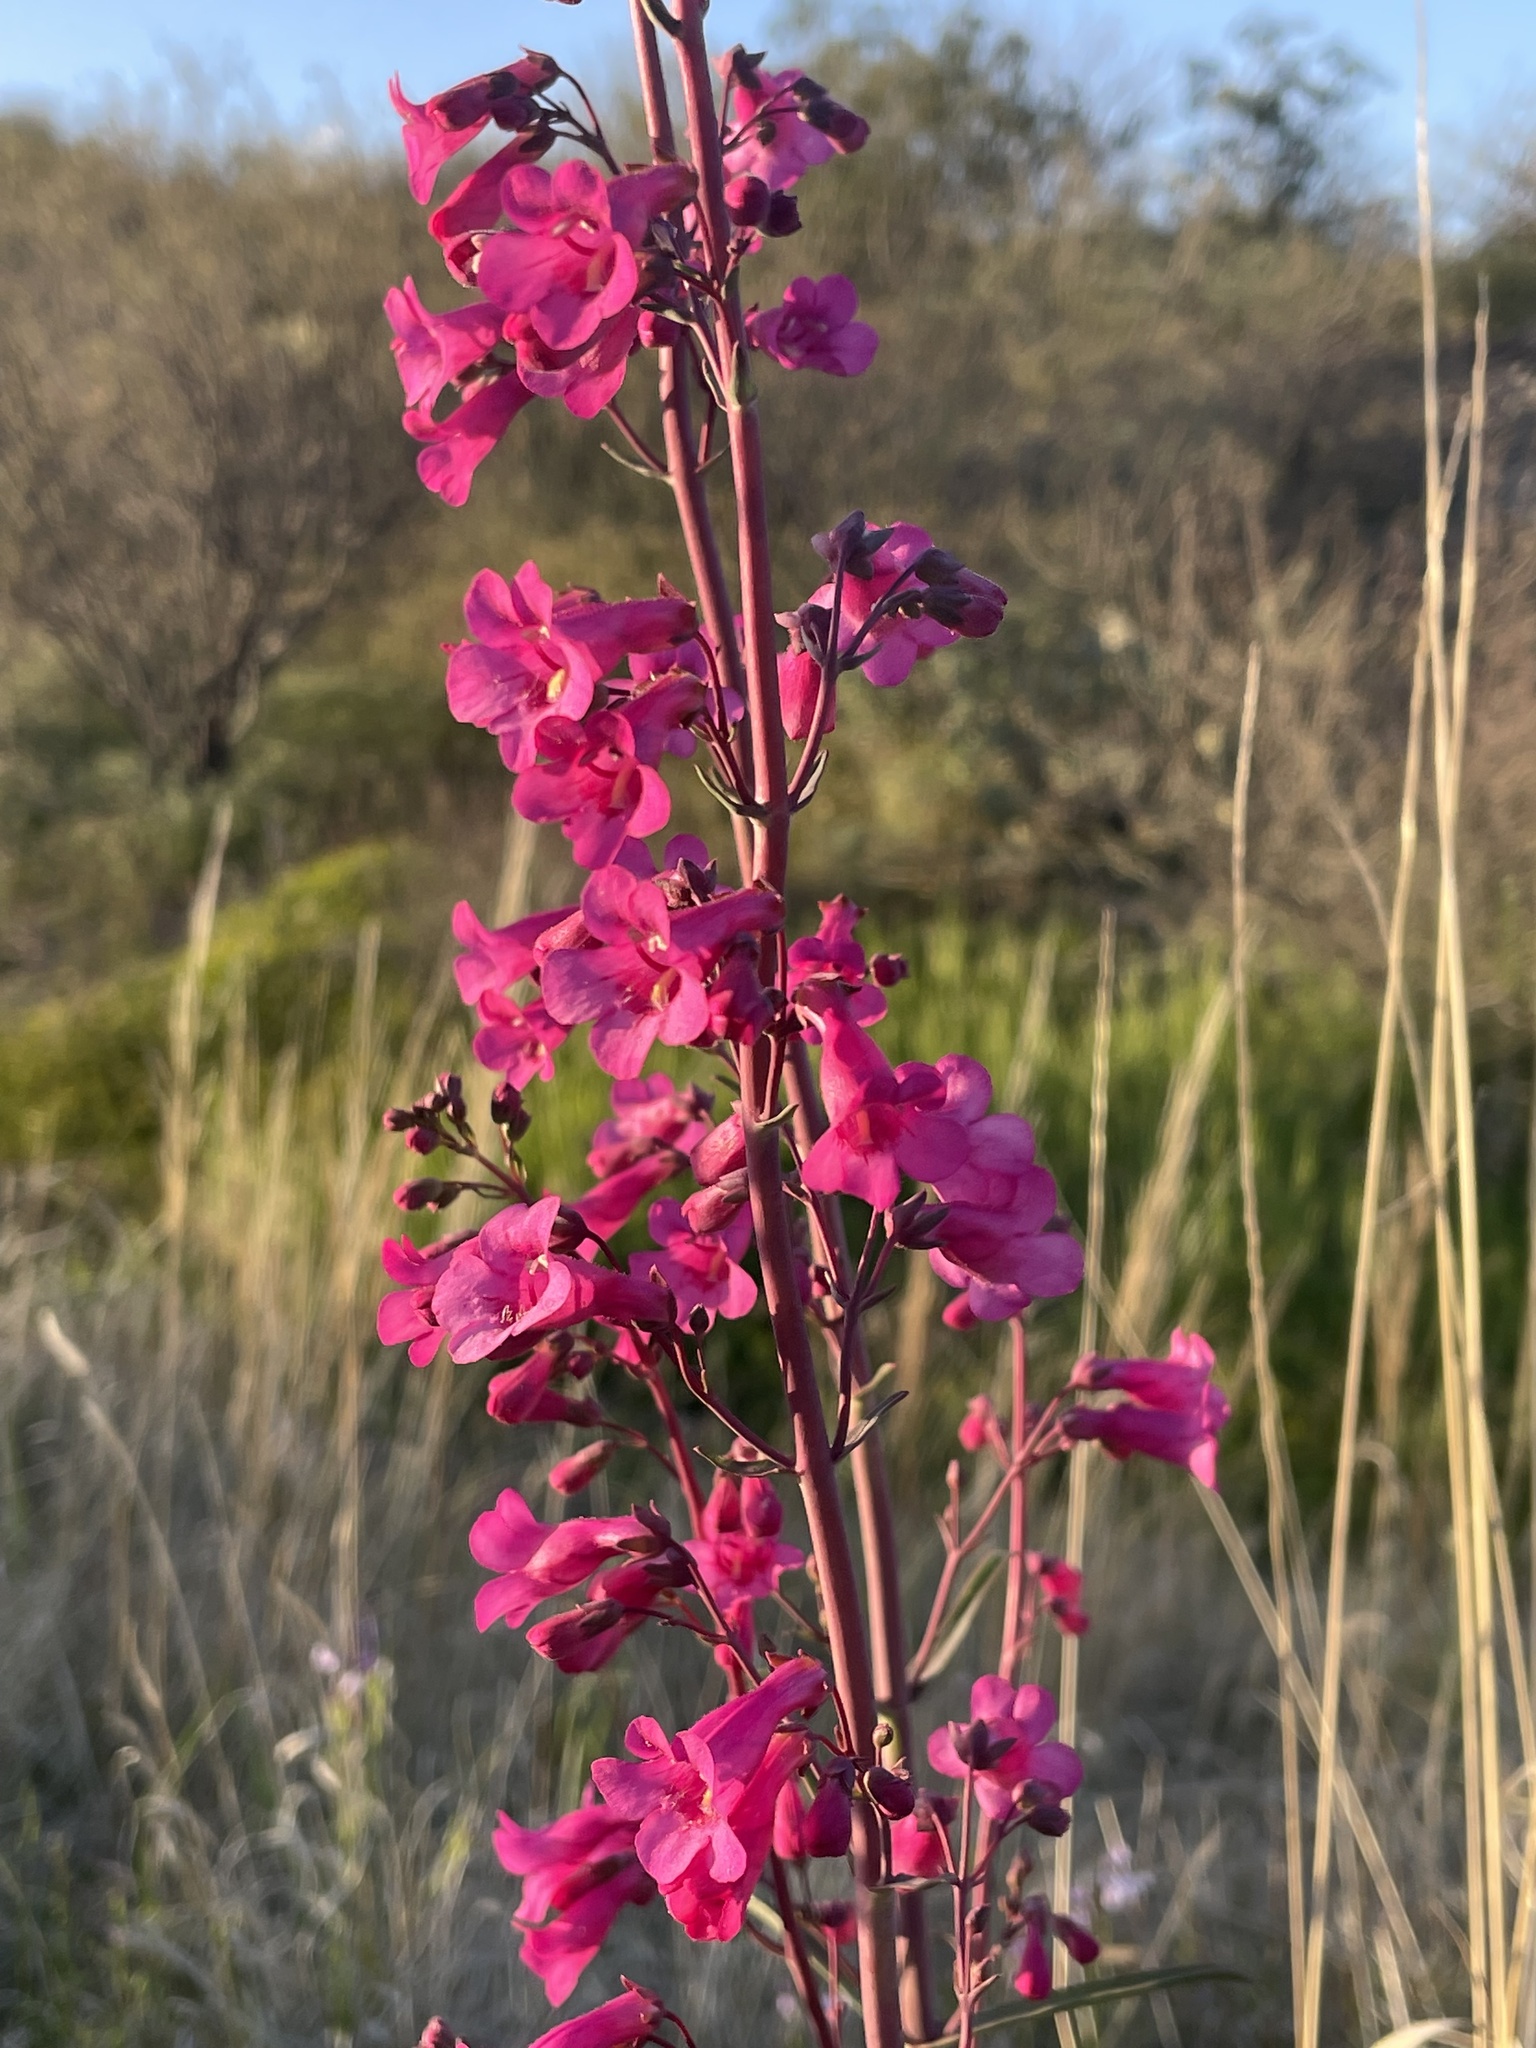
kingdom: Plantae
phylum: Tracheophyta
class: Magnoliopsida
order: Lamiales
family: Lamiaceae
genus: Salvia
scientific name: Salvia columbariae
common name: Chia
